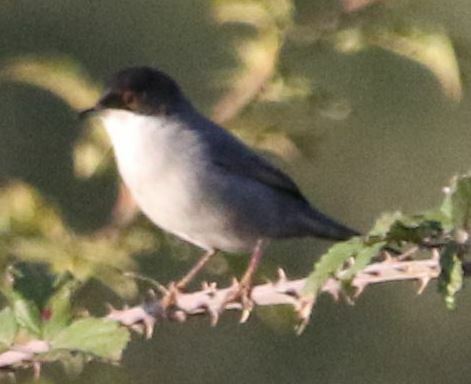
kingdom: Animalia
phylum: Chordata
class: Aves
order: Passeriformes
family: Sylviidae
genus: Curruca
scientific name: Curruca melanocephala
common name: Sardinian warbler
